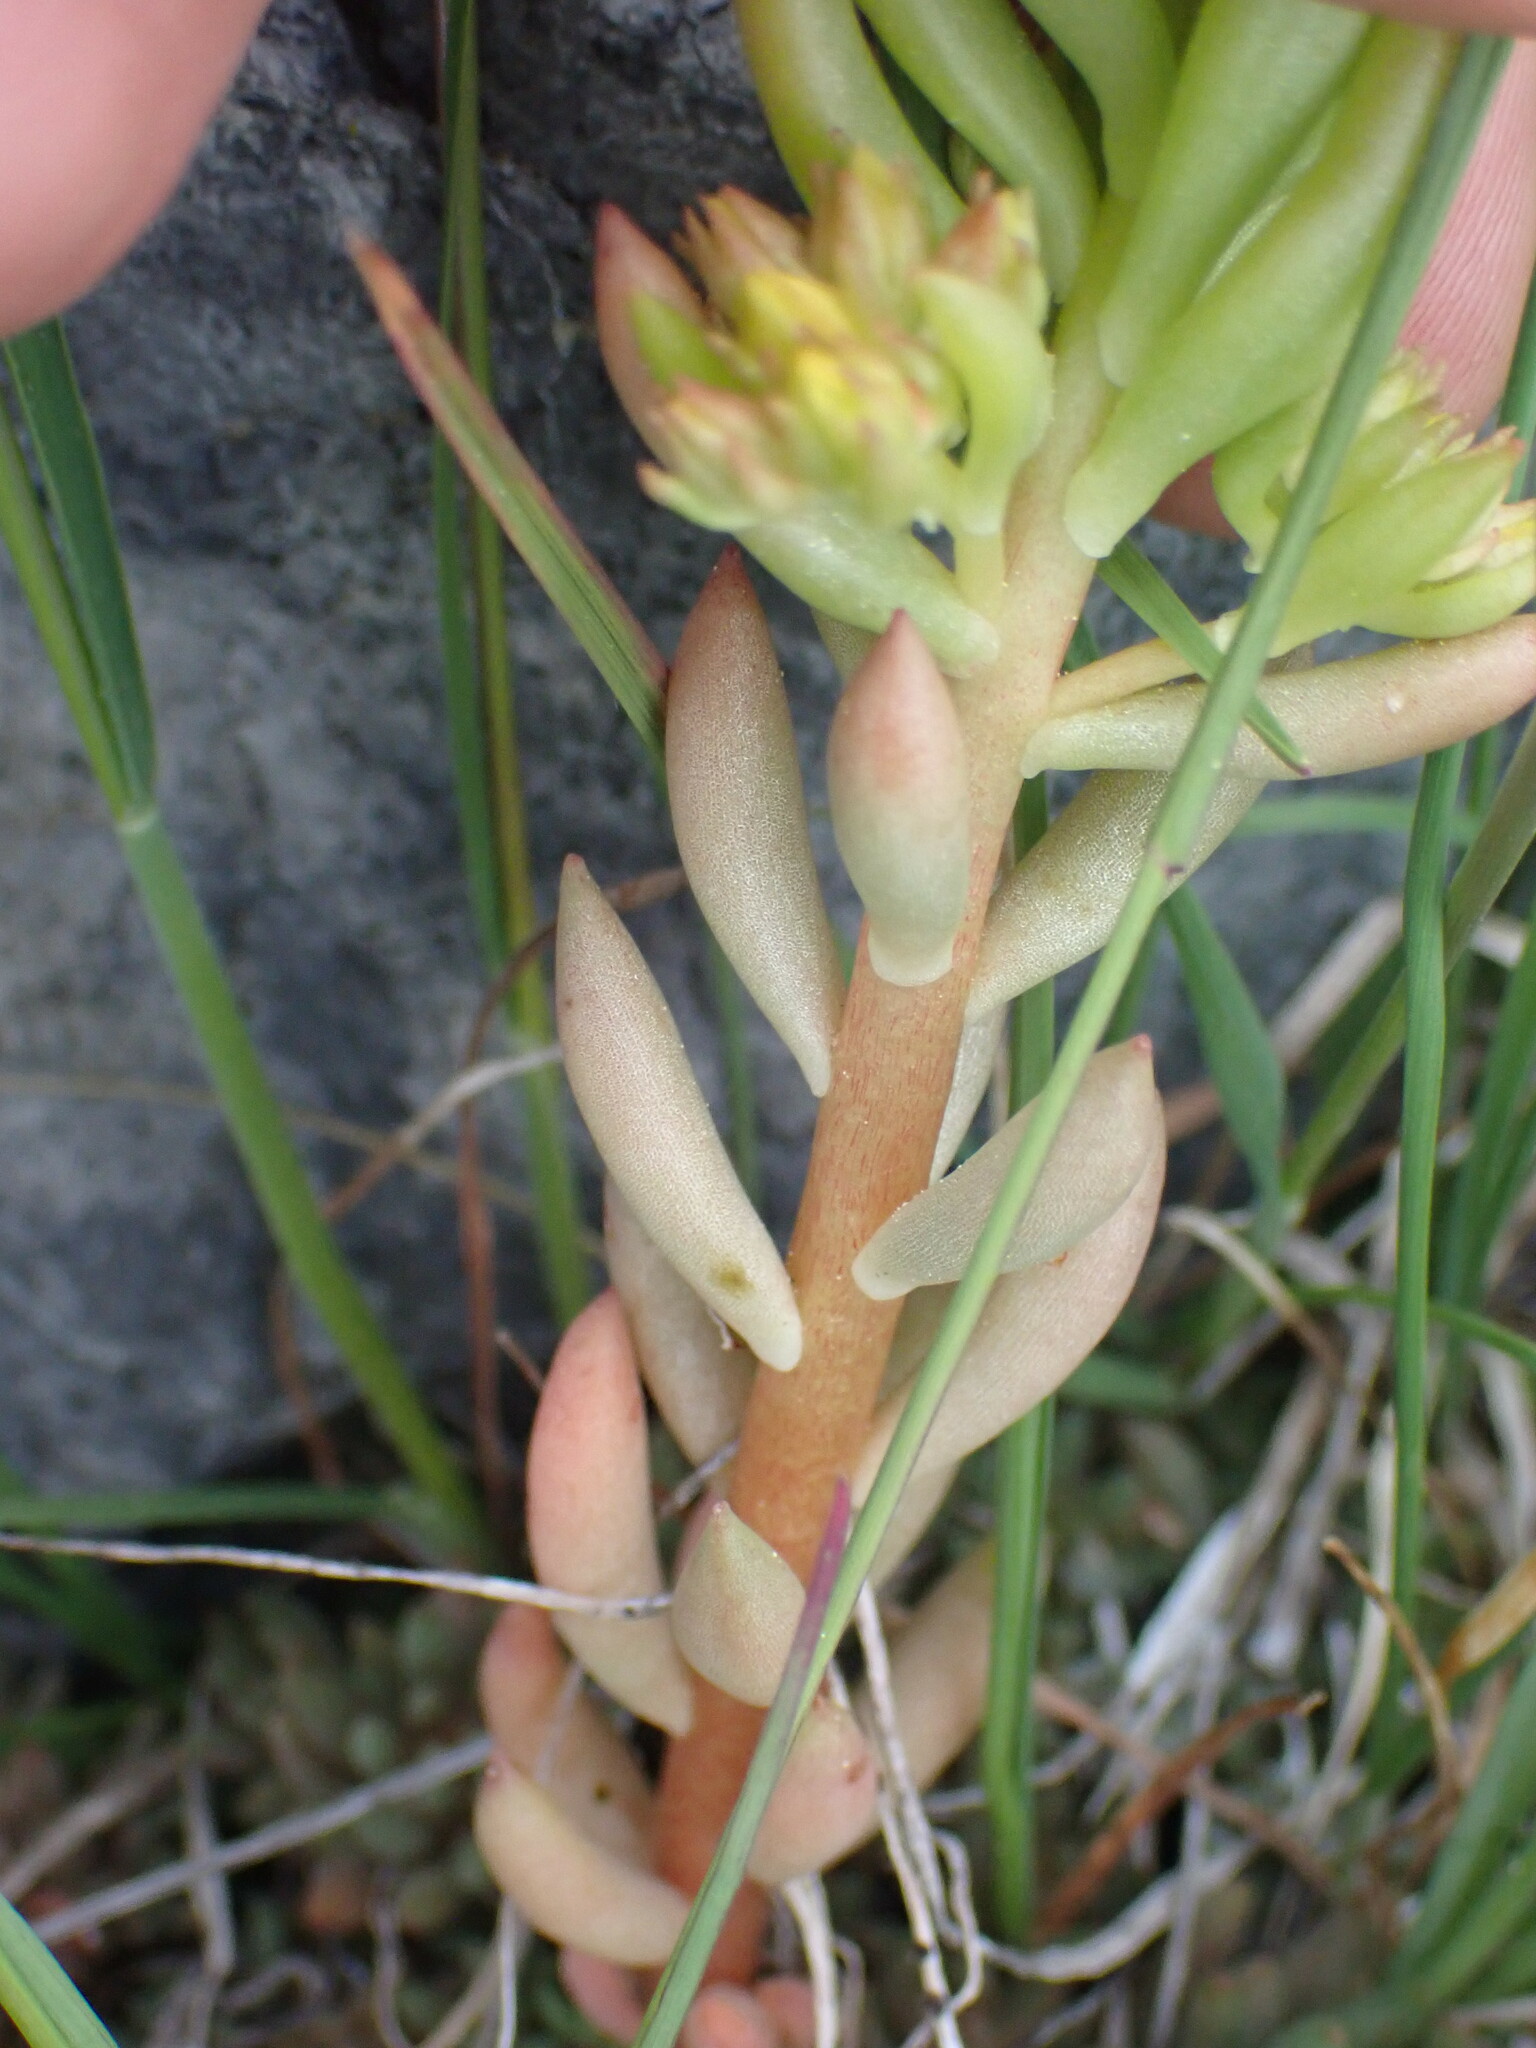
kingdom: Plantae
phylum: Tracheophyta
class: Magnoliopsida
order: Saxifragales
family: Crassulaceae
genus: Sedum
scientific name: Sedum lanceolatum
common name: Common stonecrop
